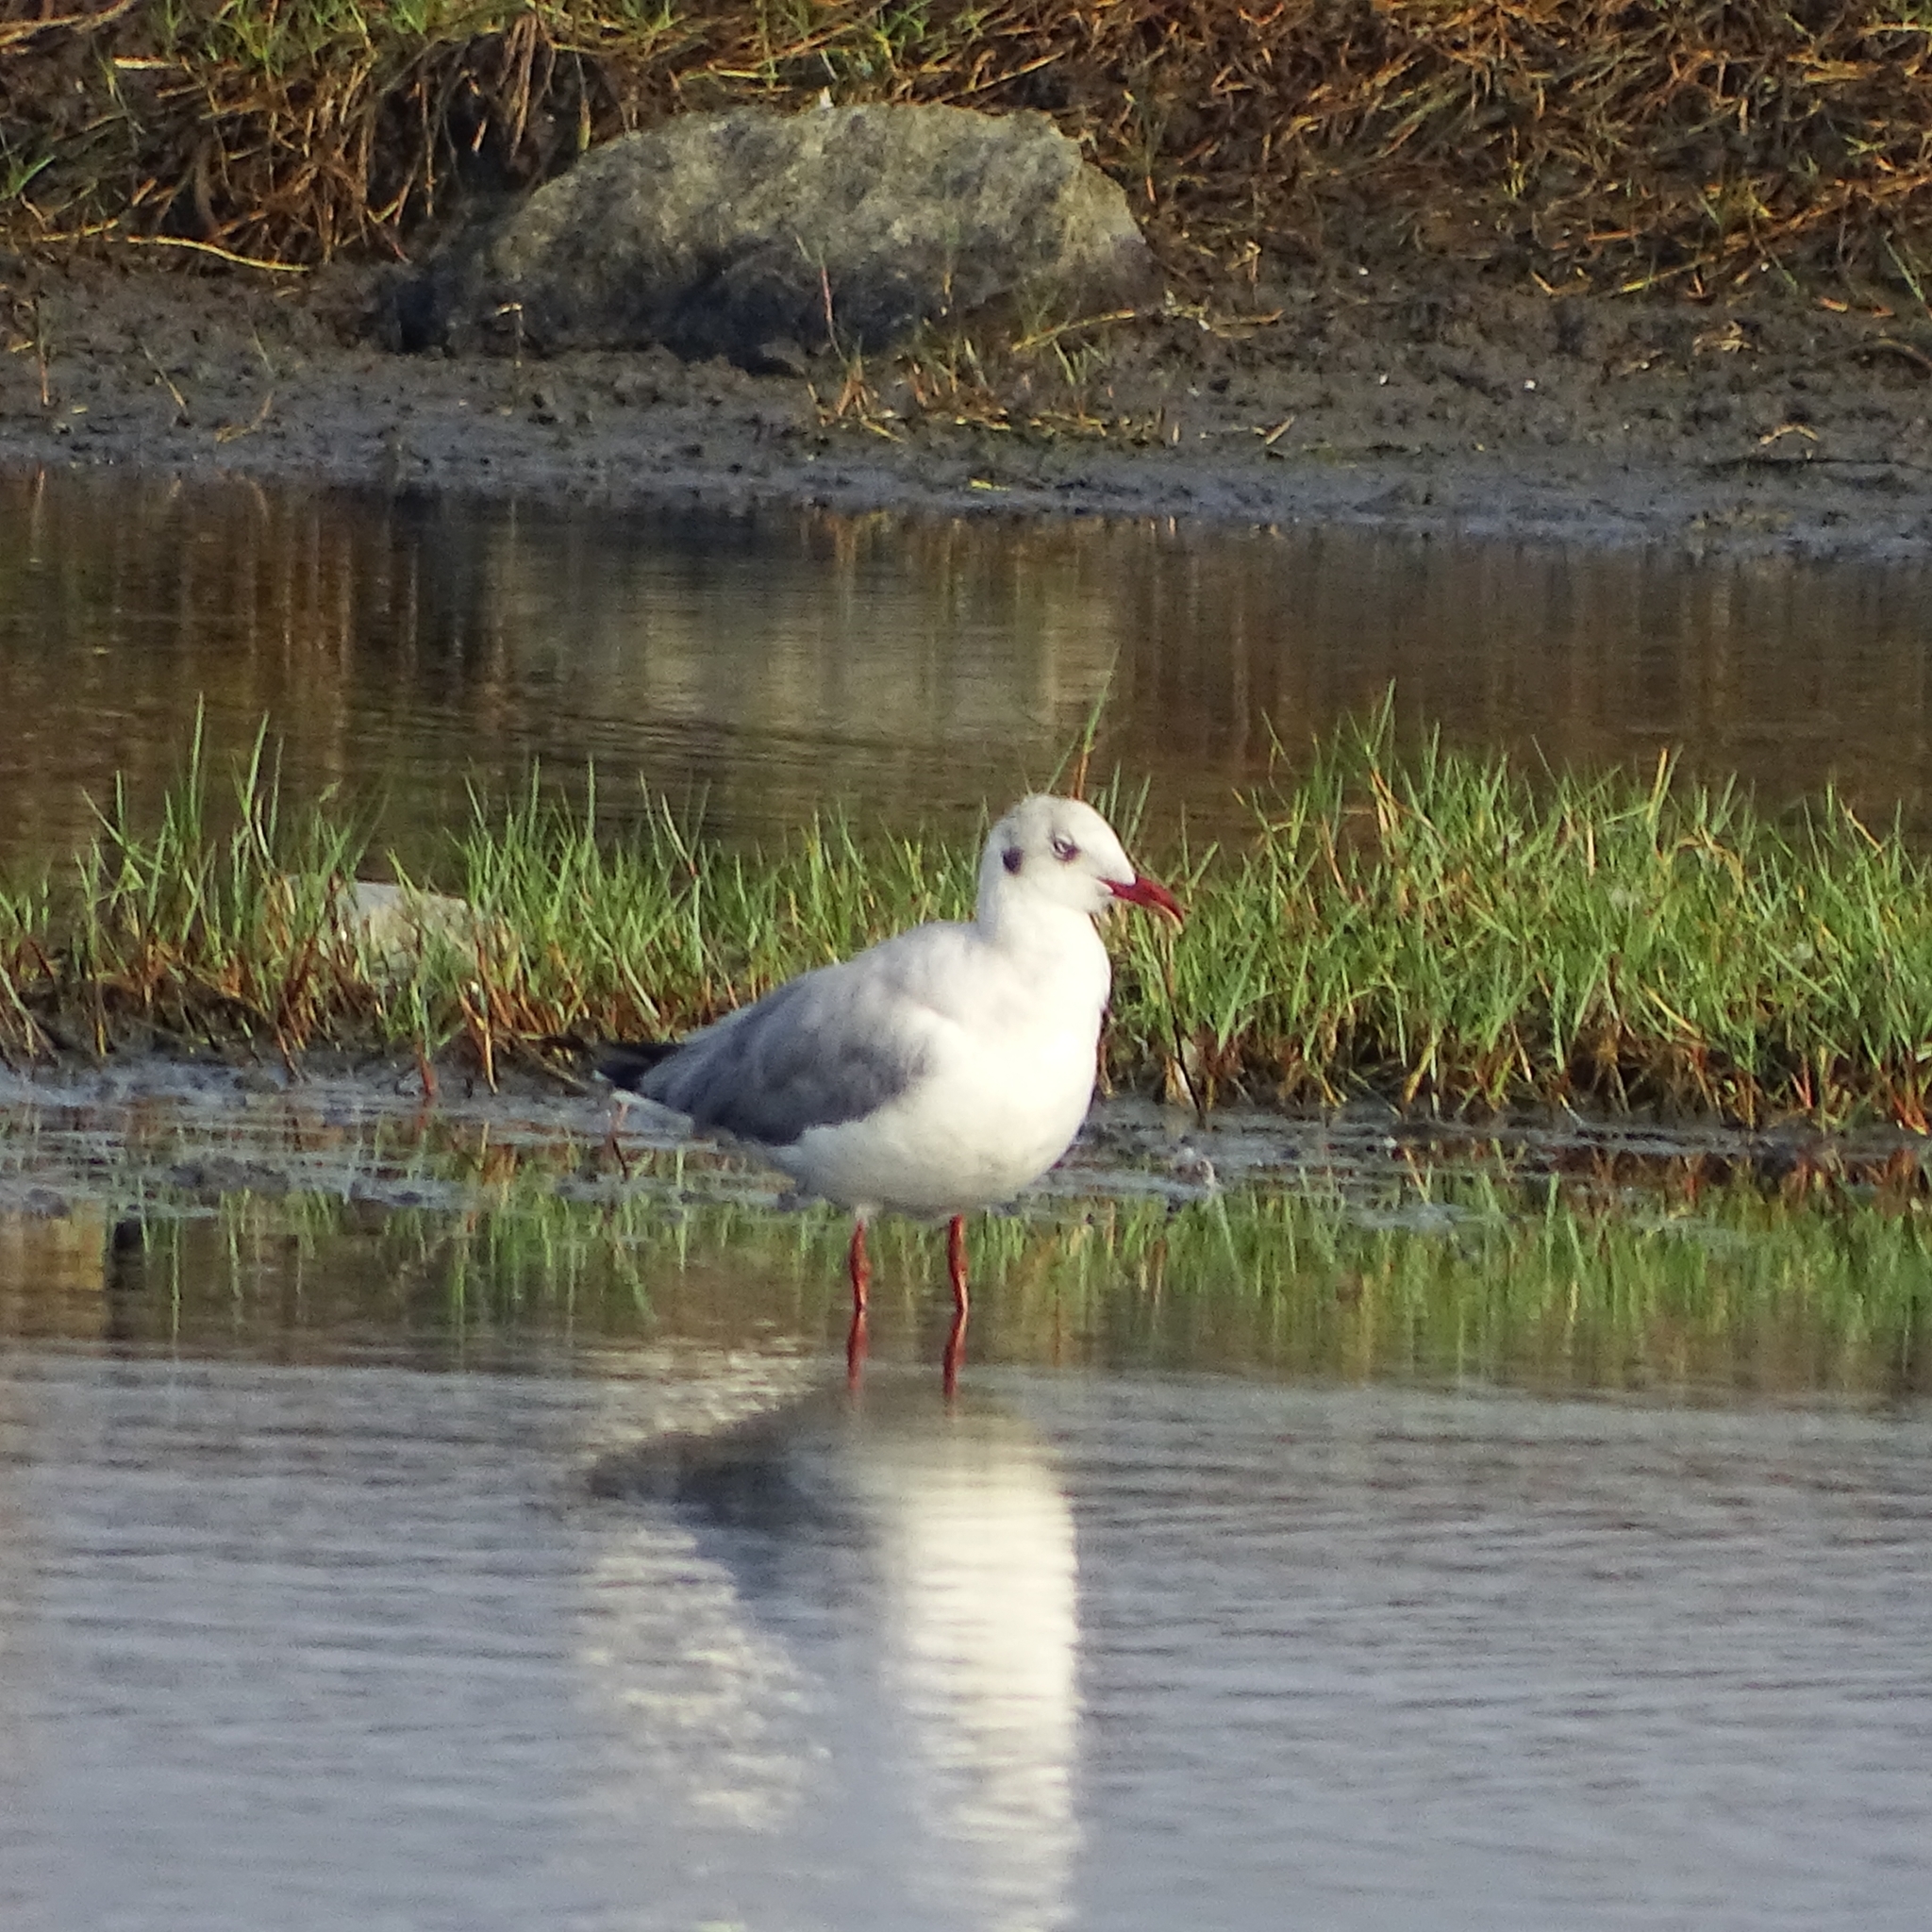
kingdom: Animalia
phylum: Chordata
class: Aves
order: Charadriiformes
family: Laridae
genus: Chroicocephalus
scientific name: Chroicocephalus brunnicephalus
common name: Brown-headed gull
